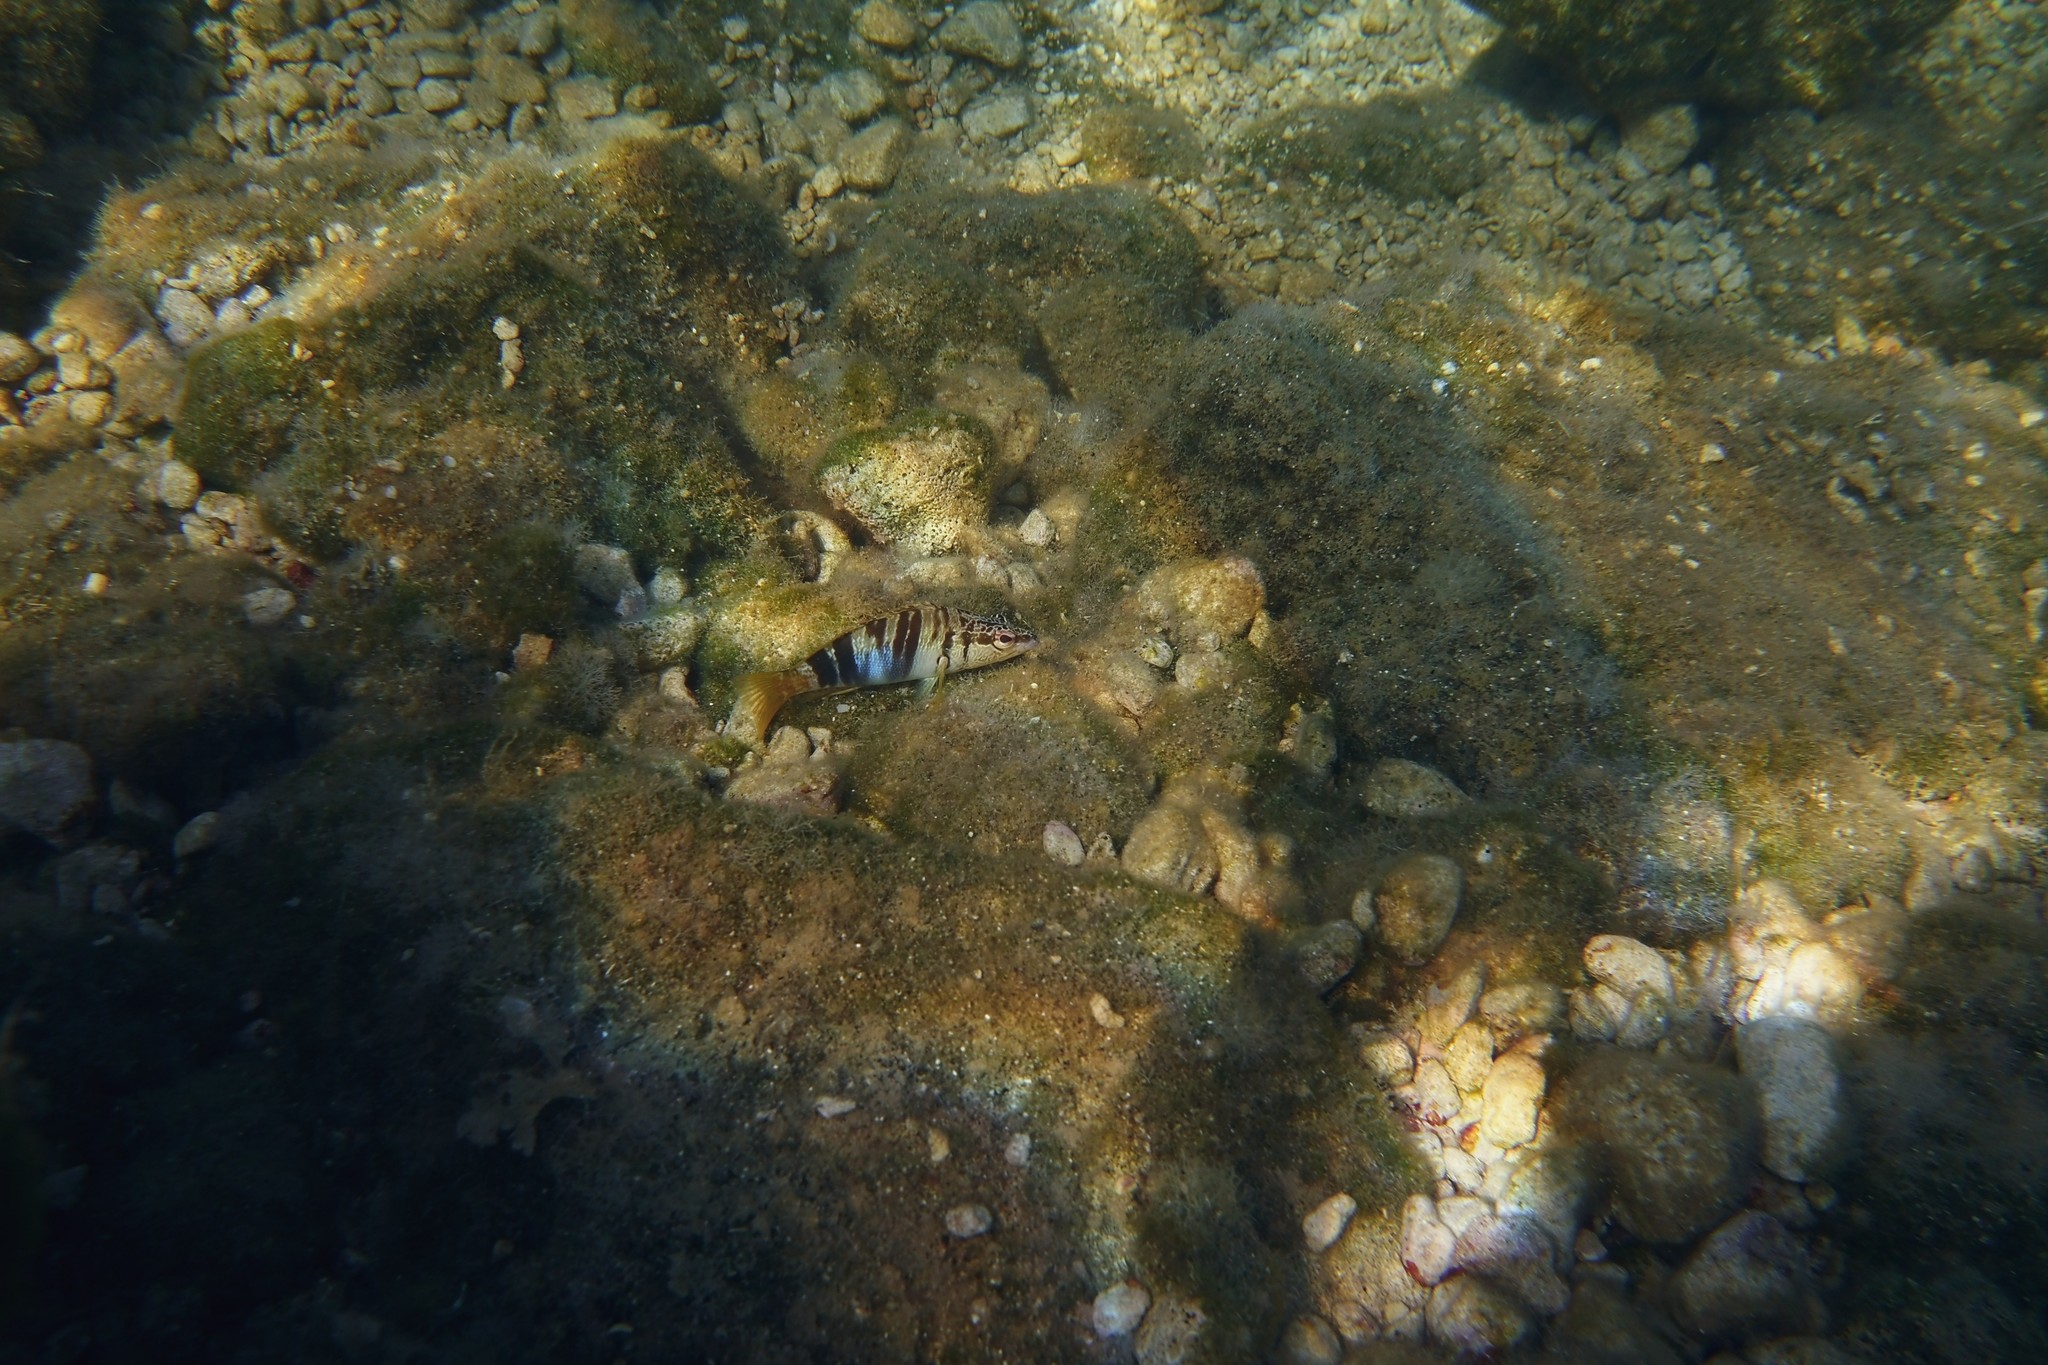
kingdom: Animalia
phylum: Chordata
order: Perciformes
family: Serranidae
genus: Serranus
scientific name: Serranus scriba
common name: Painted comber
